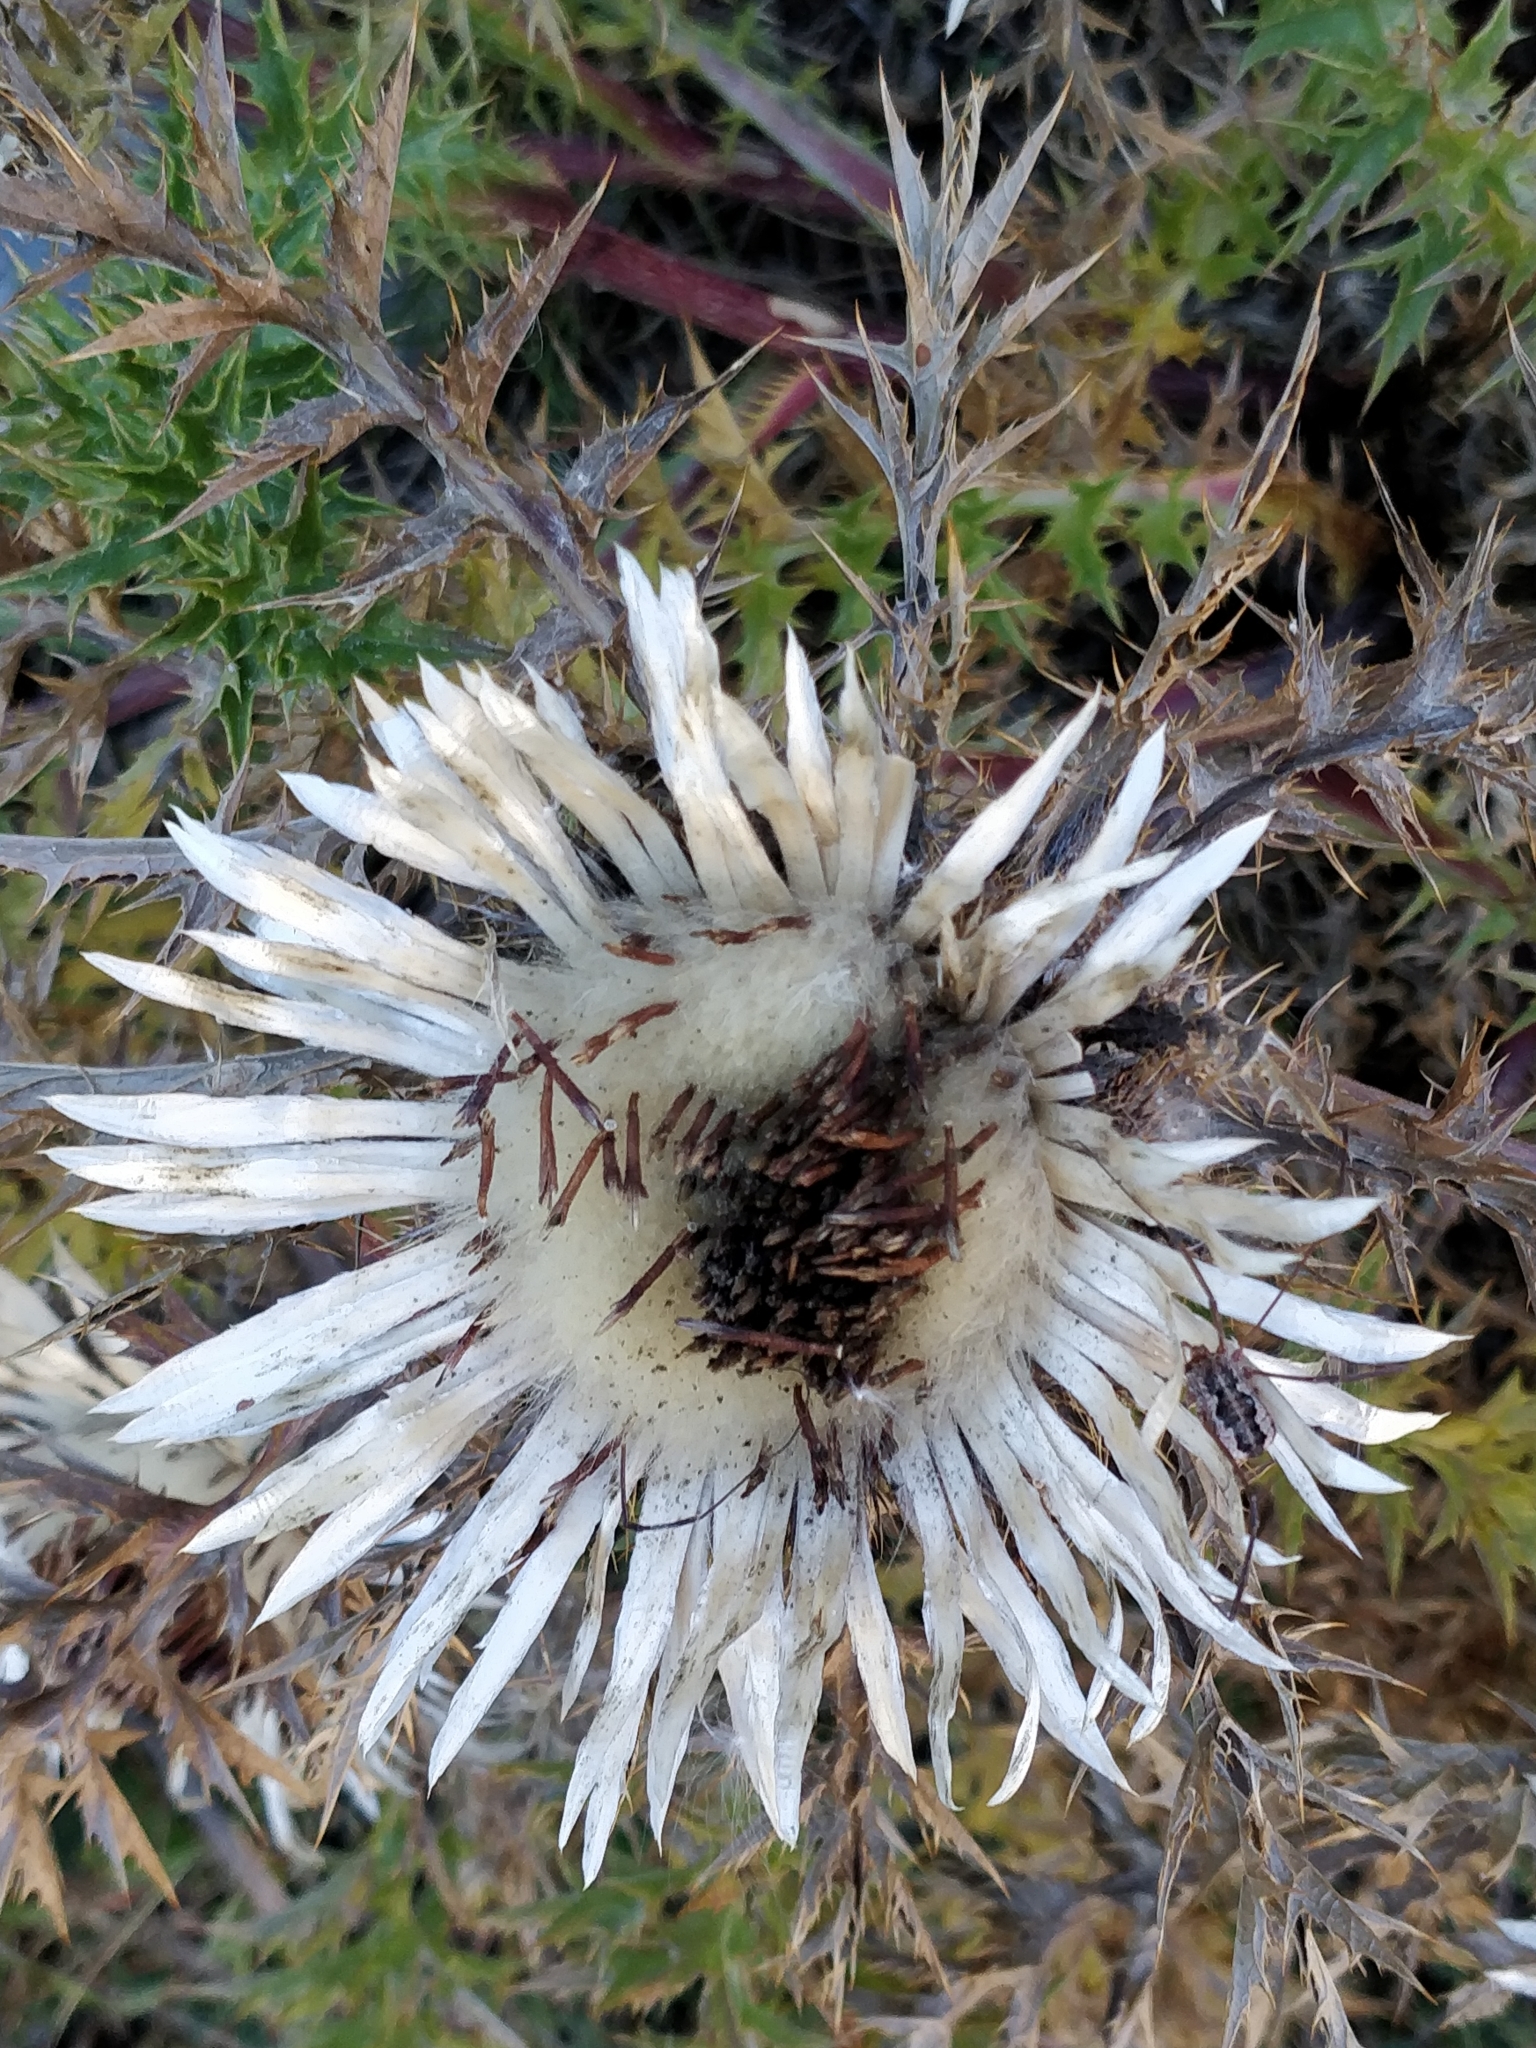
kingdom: Plantae
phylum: Tracheophyta
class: Magnoliopsida
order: Asterales
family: Asteraceae
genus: Carlina
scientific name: Carlina acaulis
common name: Stemless carline thistle
